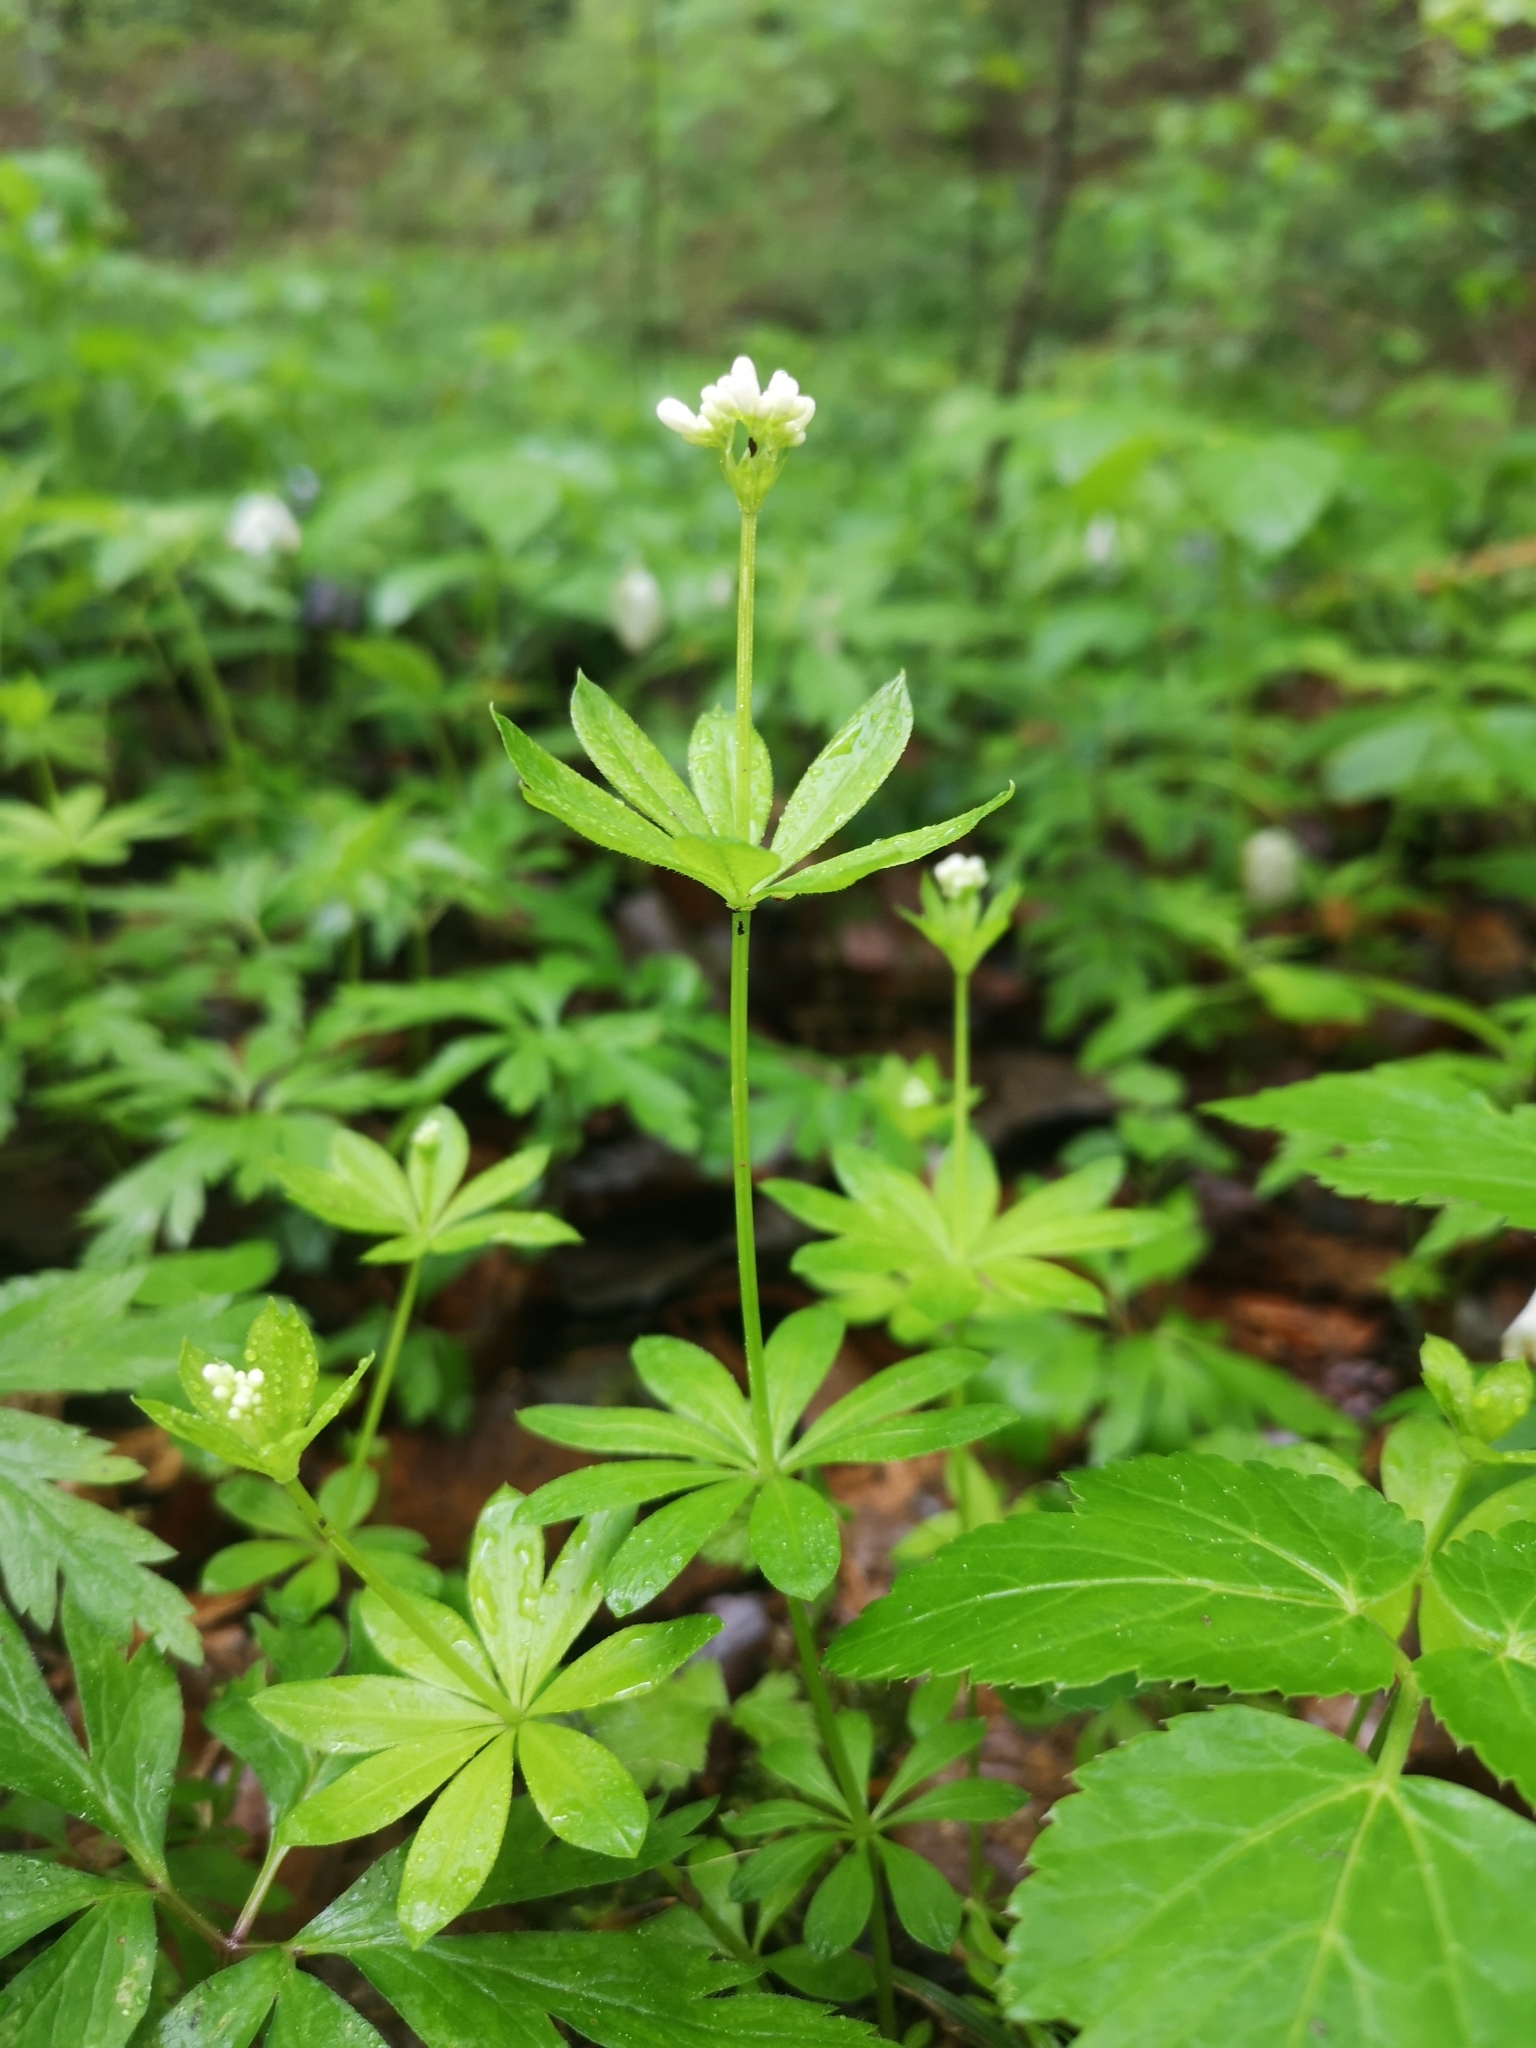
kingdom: Plantae
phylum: Tracheophyta
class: Magnoliopsida
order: Gentianales
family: Rubiaceae
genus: Galium
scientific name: Galium odoratum
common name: Sweet woodruff
